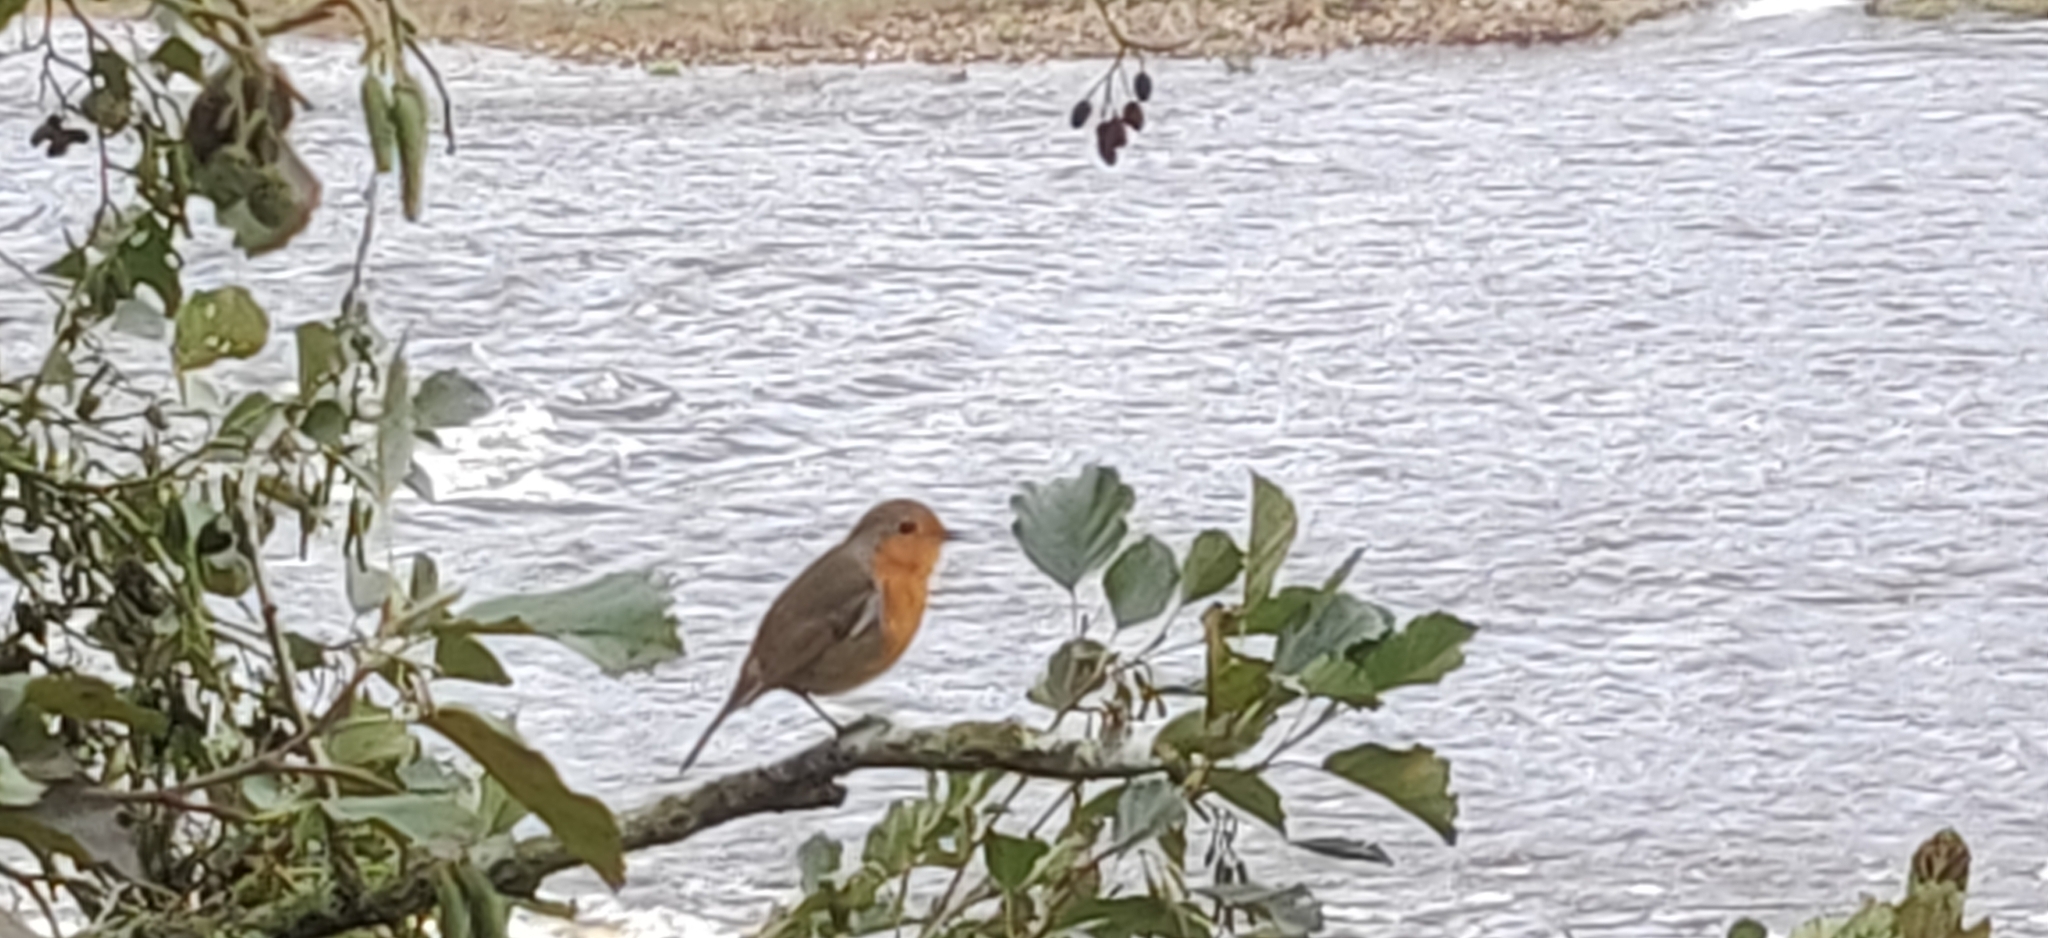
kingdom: Animalia
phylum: Chordata
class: Aves
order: Passeriformes
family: Muscicapidae
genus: Erithacus
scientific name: Erithacus rubecula
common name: European robin
